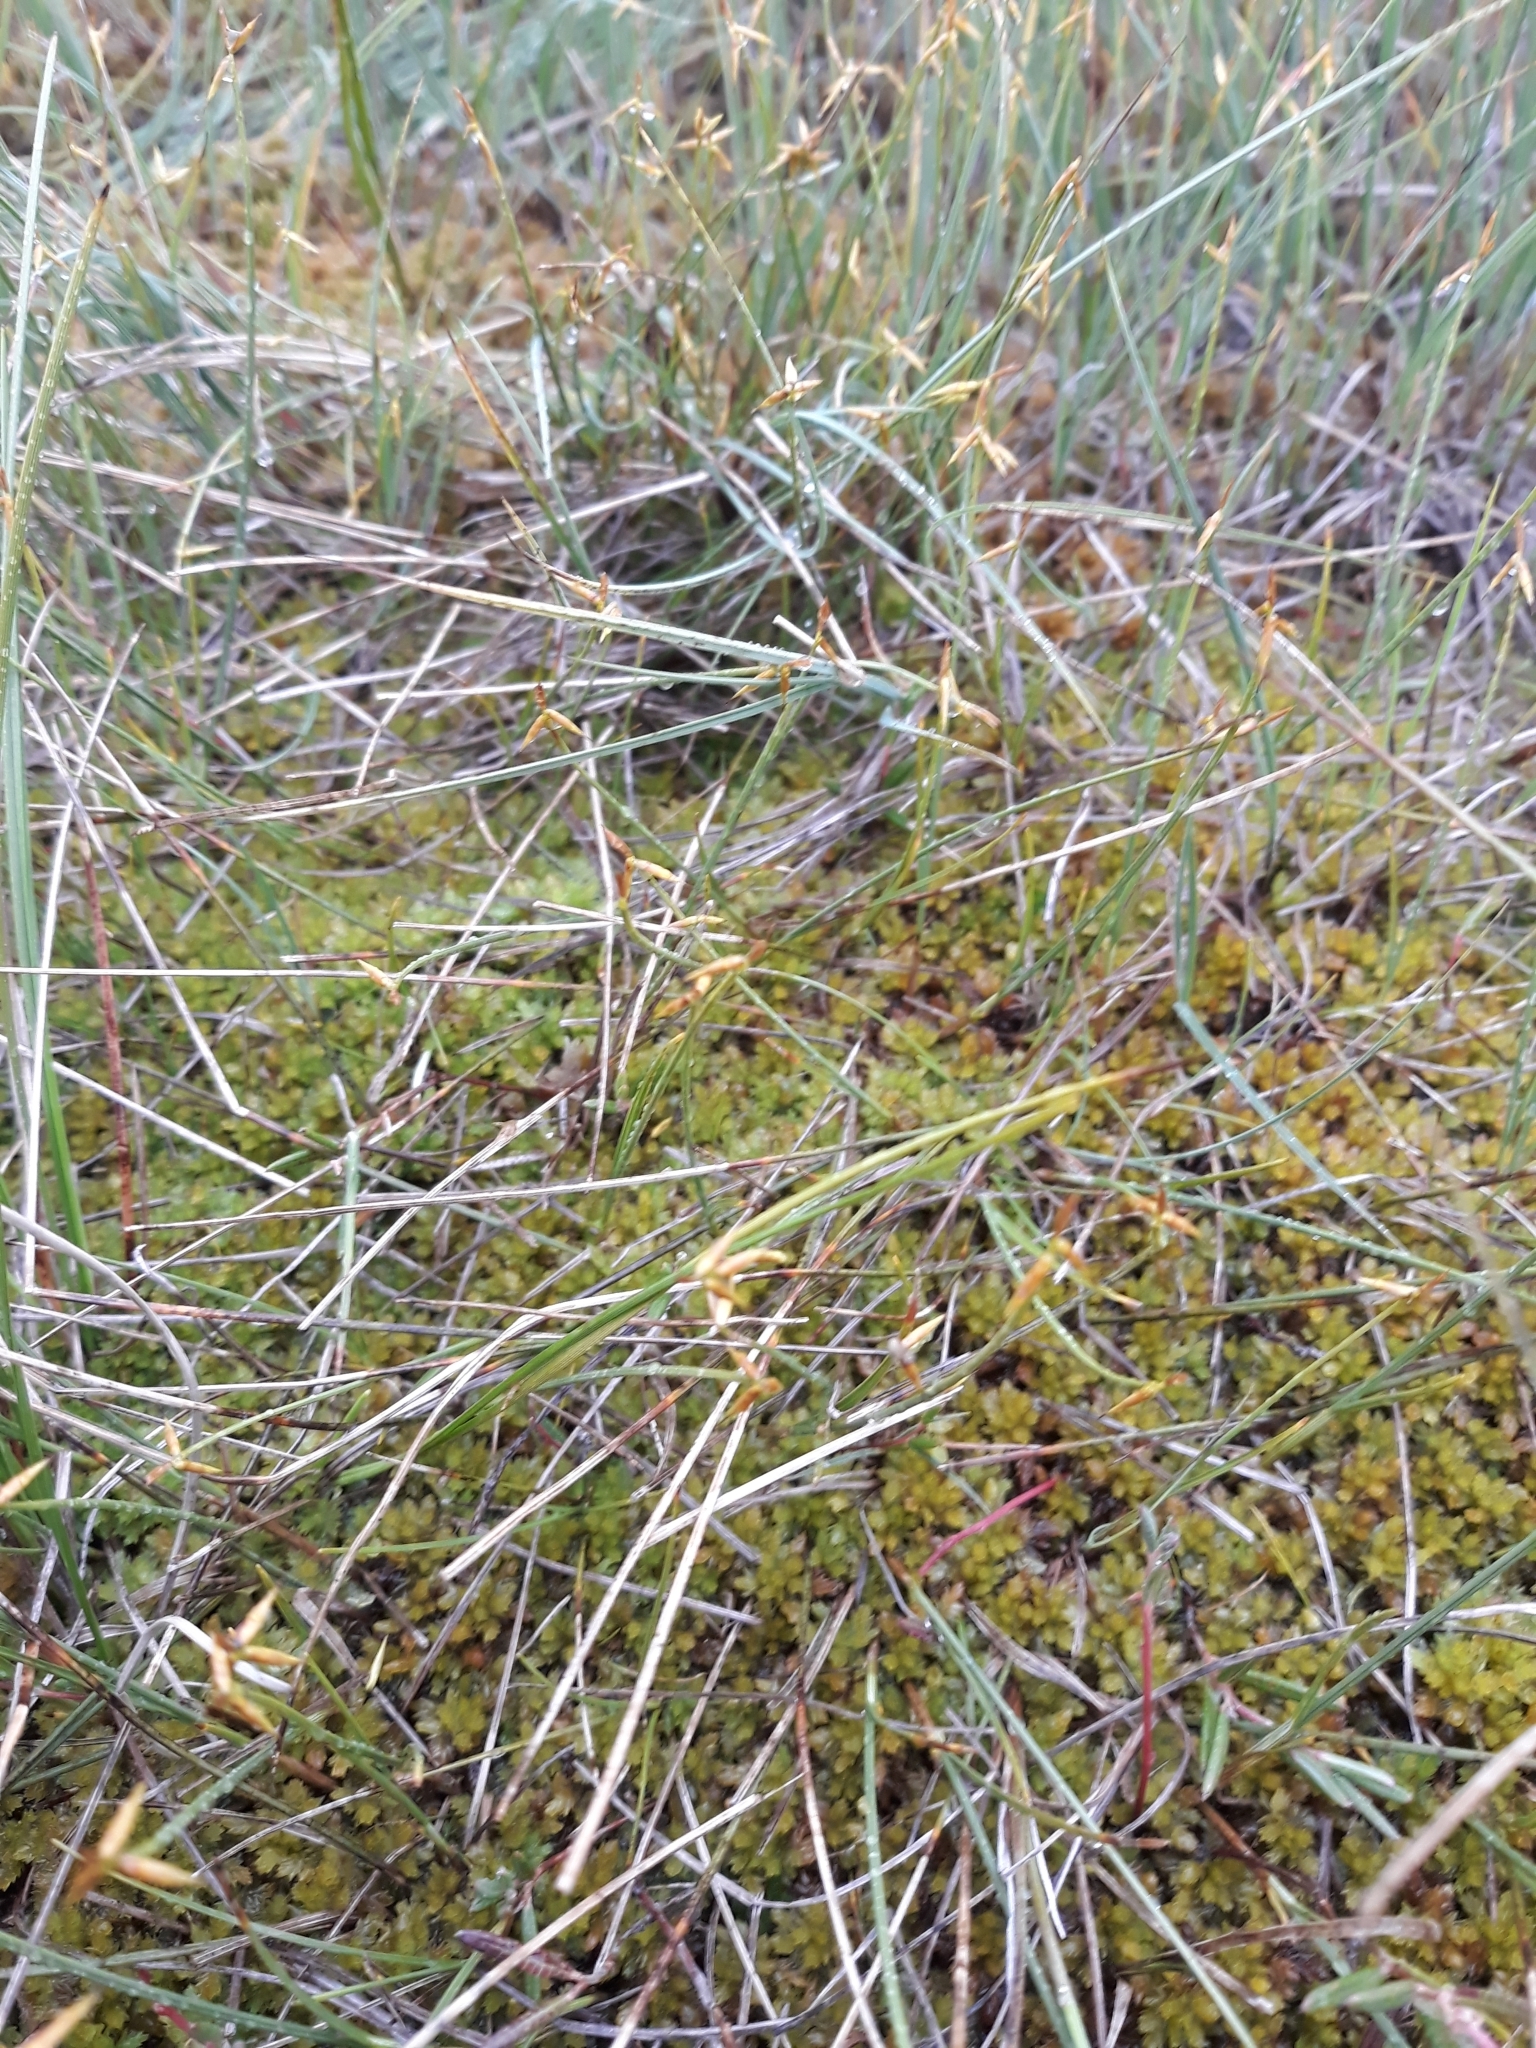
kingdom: Plantae
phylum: Tracheophyta
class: Liliopsida
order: Poales
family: Cyperaceae
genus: Carex
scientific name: Carex pauciflora
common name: Few-flowered sedge
